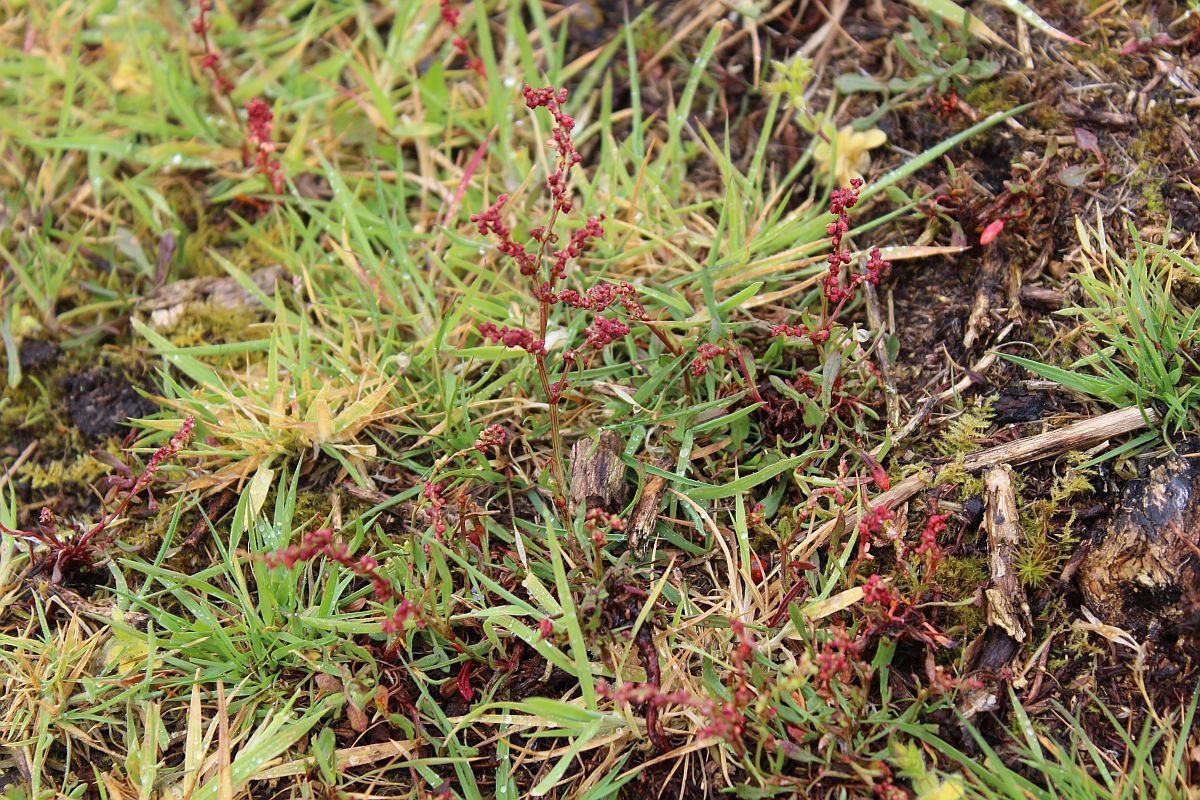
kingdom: Plantae
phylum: Tracheophyta
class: Magnoliopsida
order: Caryophyllales
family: Polygonaceae
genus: Rumex
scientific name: Rumex acetosella
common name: Common sheep sorrel
